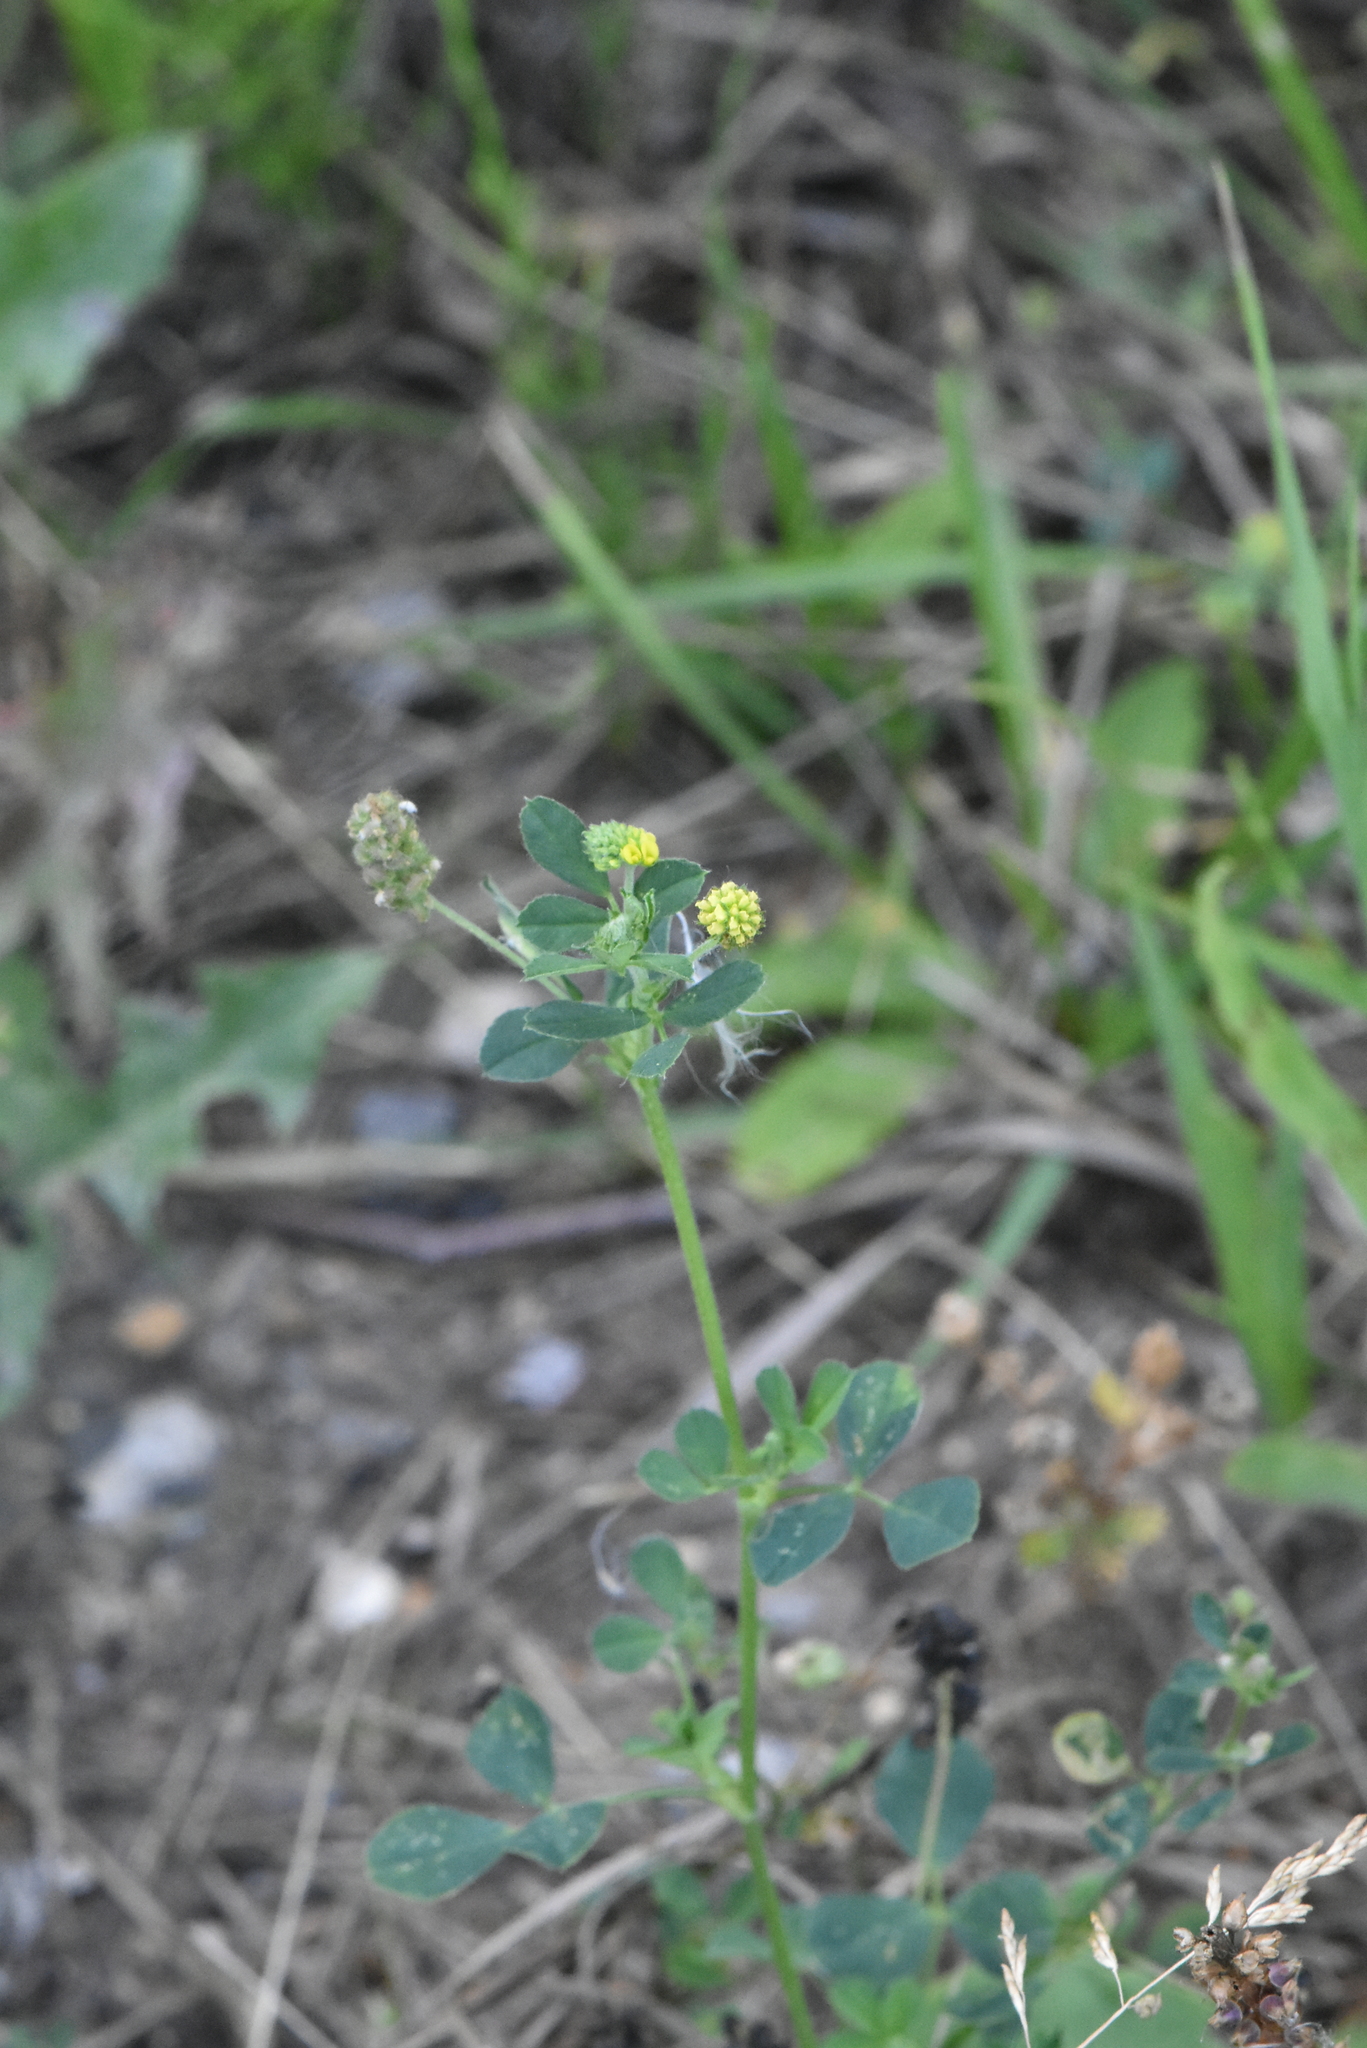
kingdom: Plantae
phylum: Tracheophyta
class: Magnoliopsida
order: Fabales
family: Fabaceae
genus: Medicago
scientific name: Medicago lupulina
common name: Black medick
